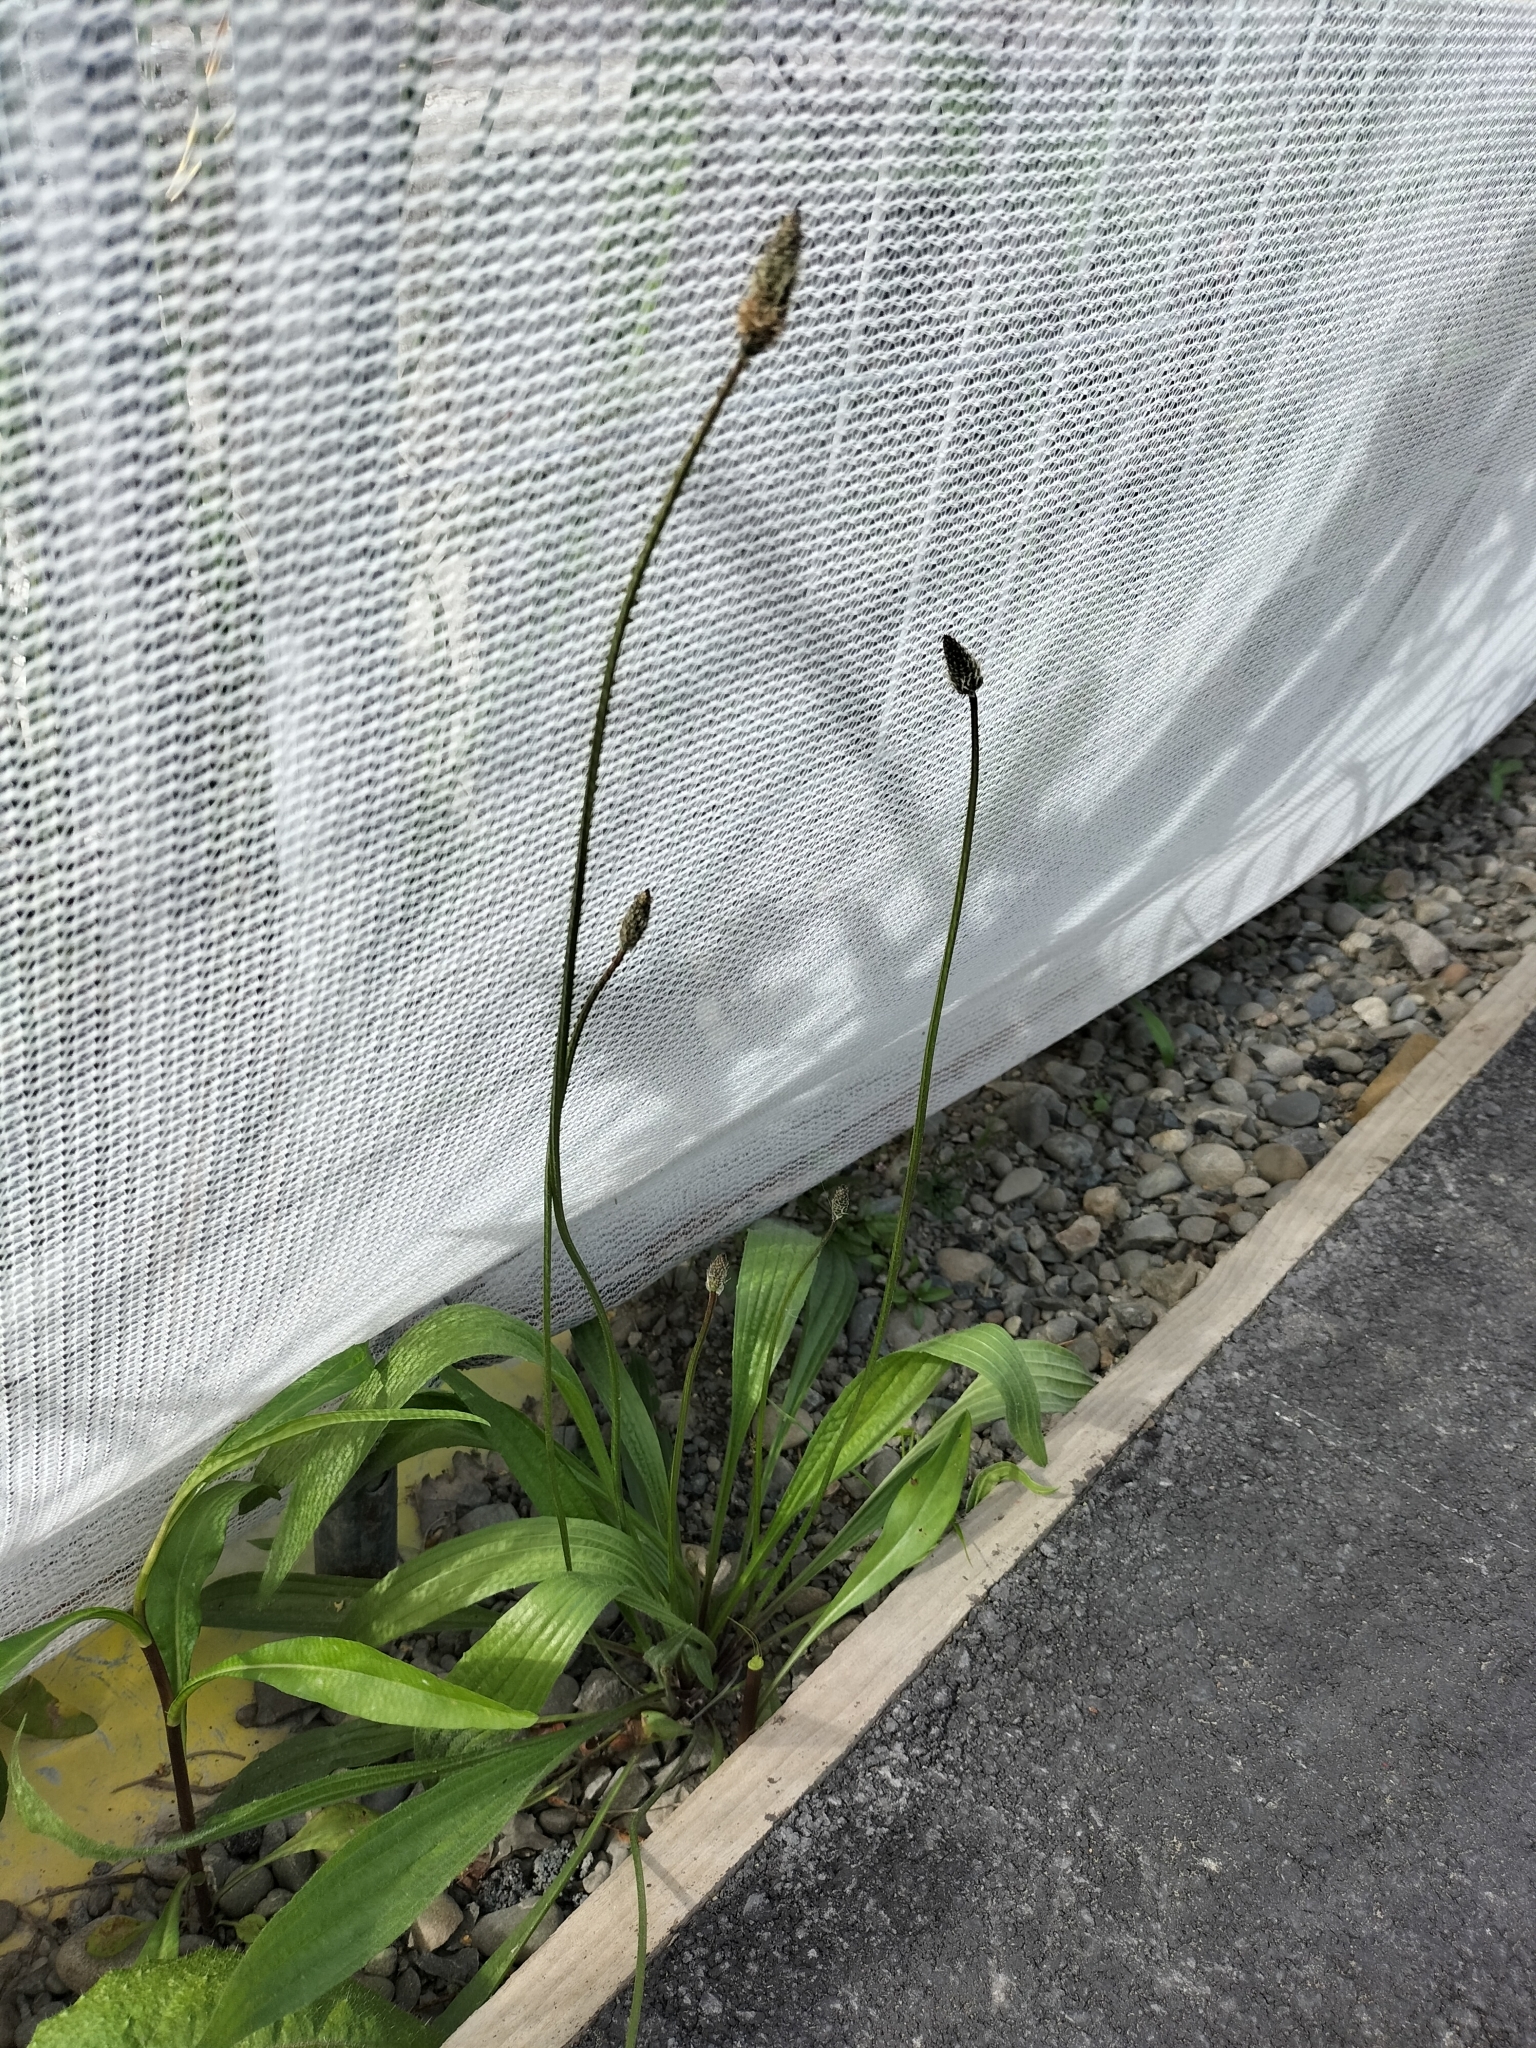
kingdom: Plantae
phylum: Tracheophyta
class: Magnoliopsida
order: Lamiales
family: Plantaginaceae
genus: Plantago
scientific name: Plantago lanceolata
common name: Ribwort plantain
